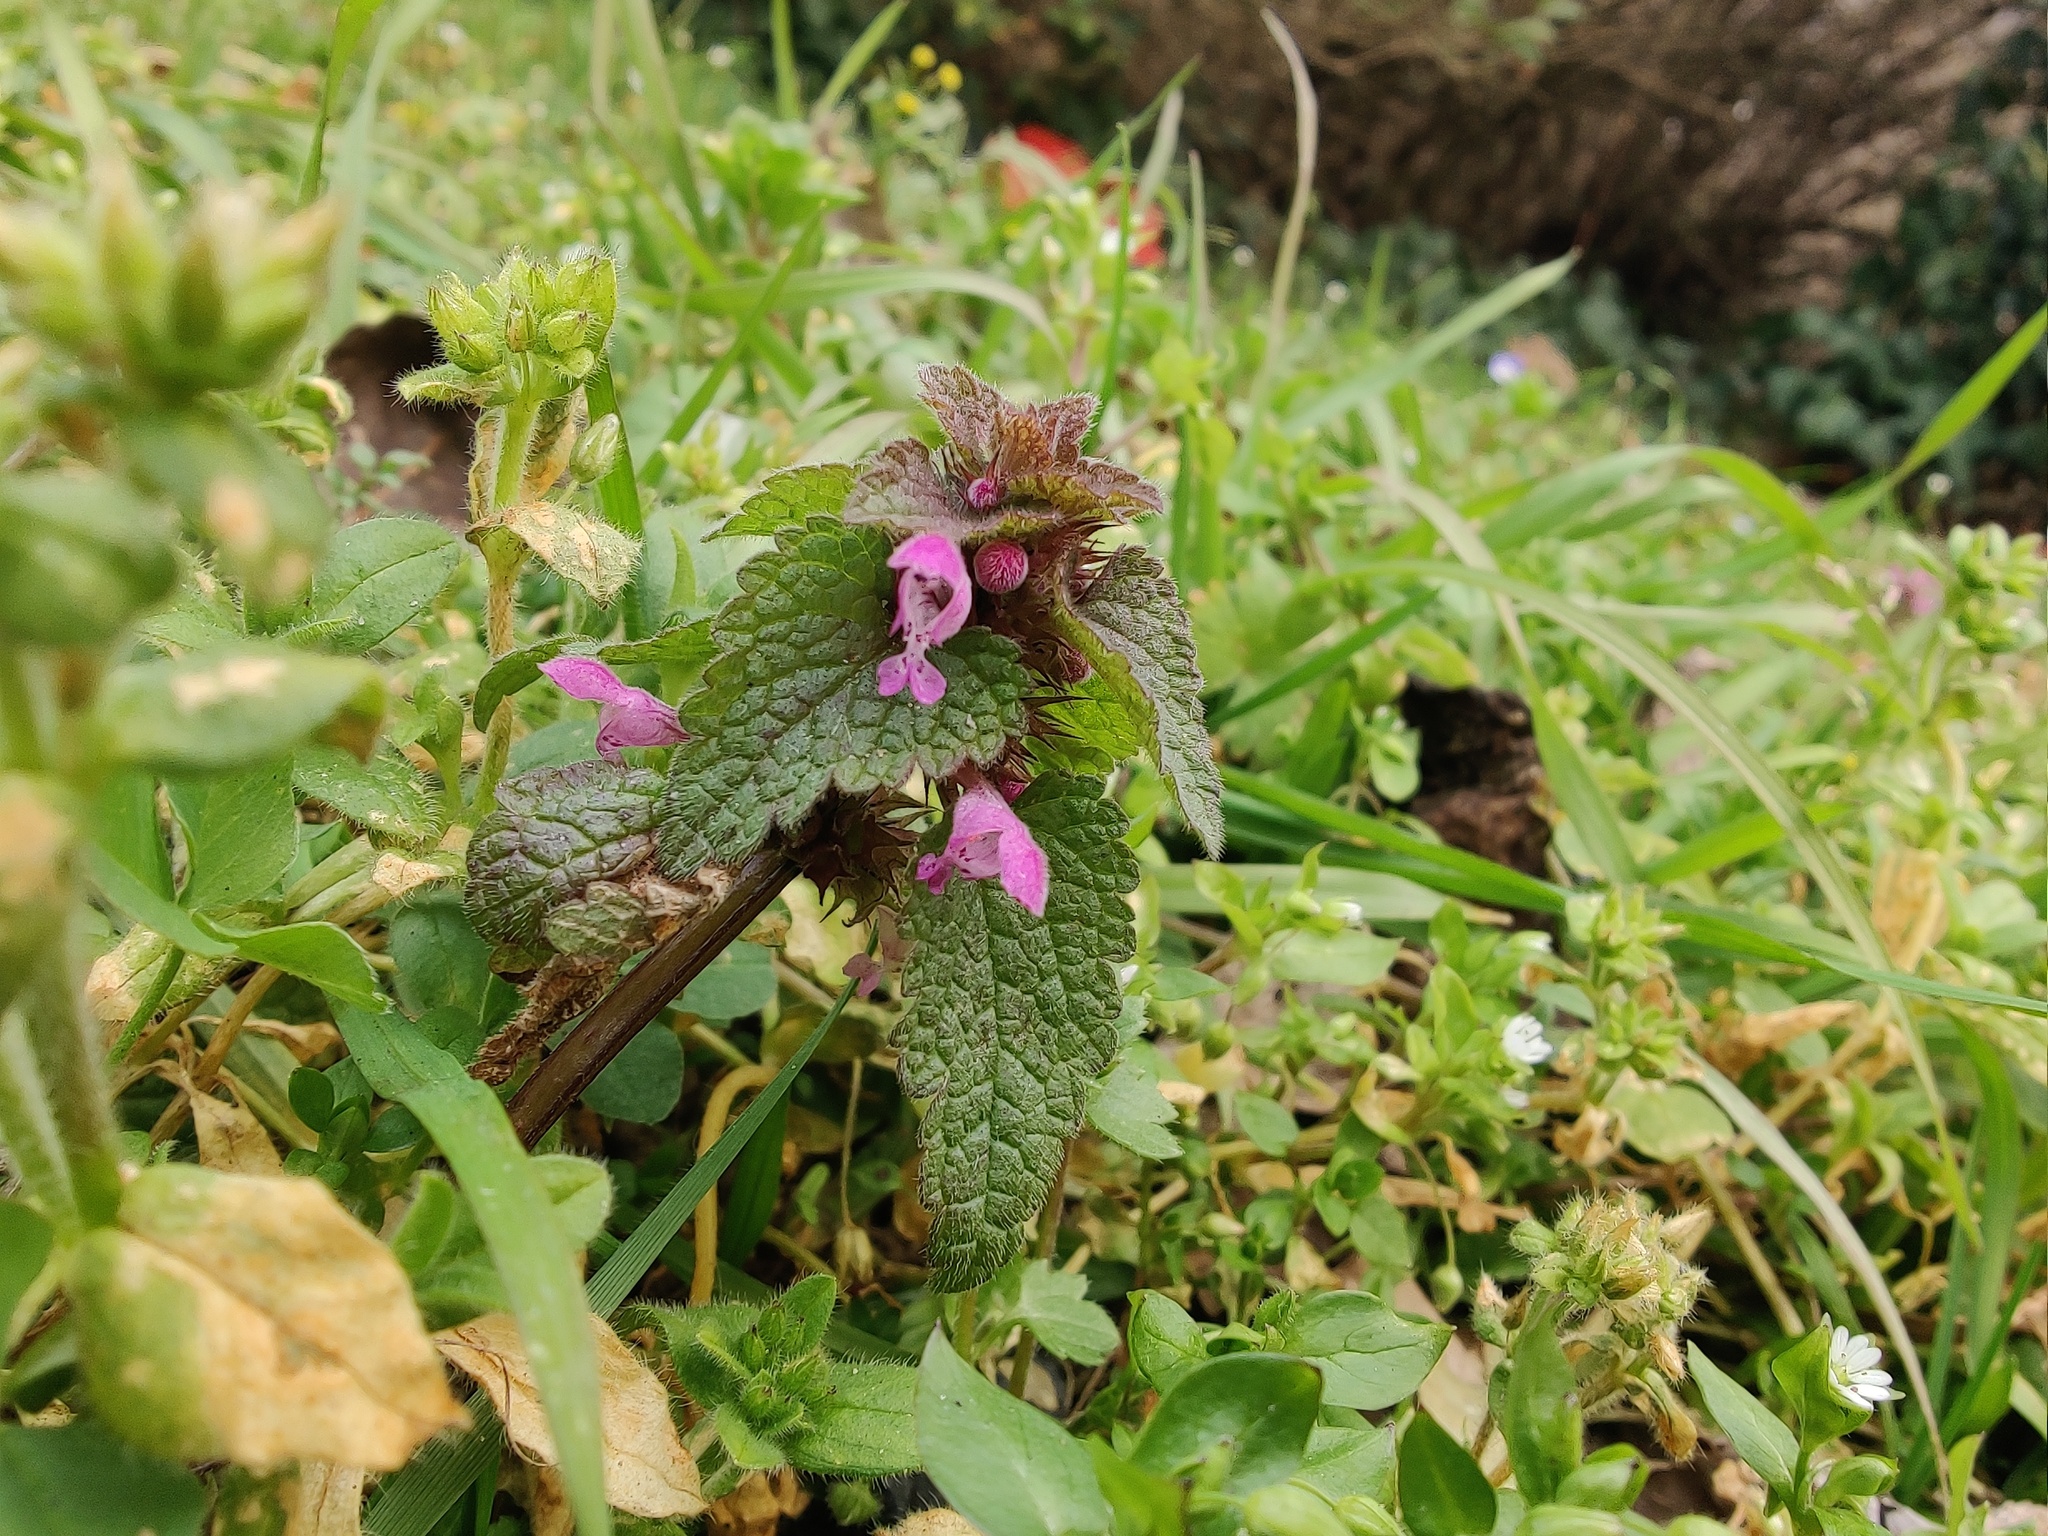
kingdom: Plantae
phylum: Tracheophyta
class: Magnoliopsida
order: Lamiales
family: Lamiaceae
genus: Lamium
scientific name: Lamium purpureum
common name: Red dead-nettle
